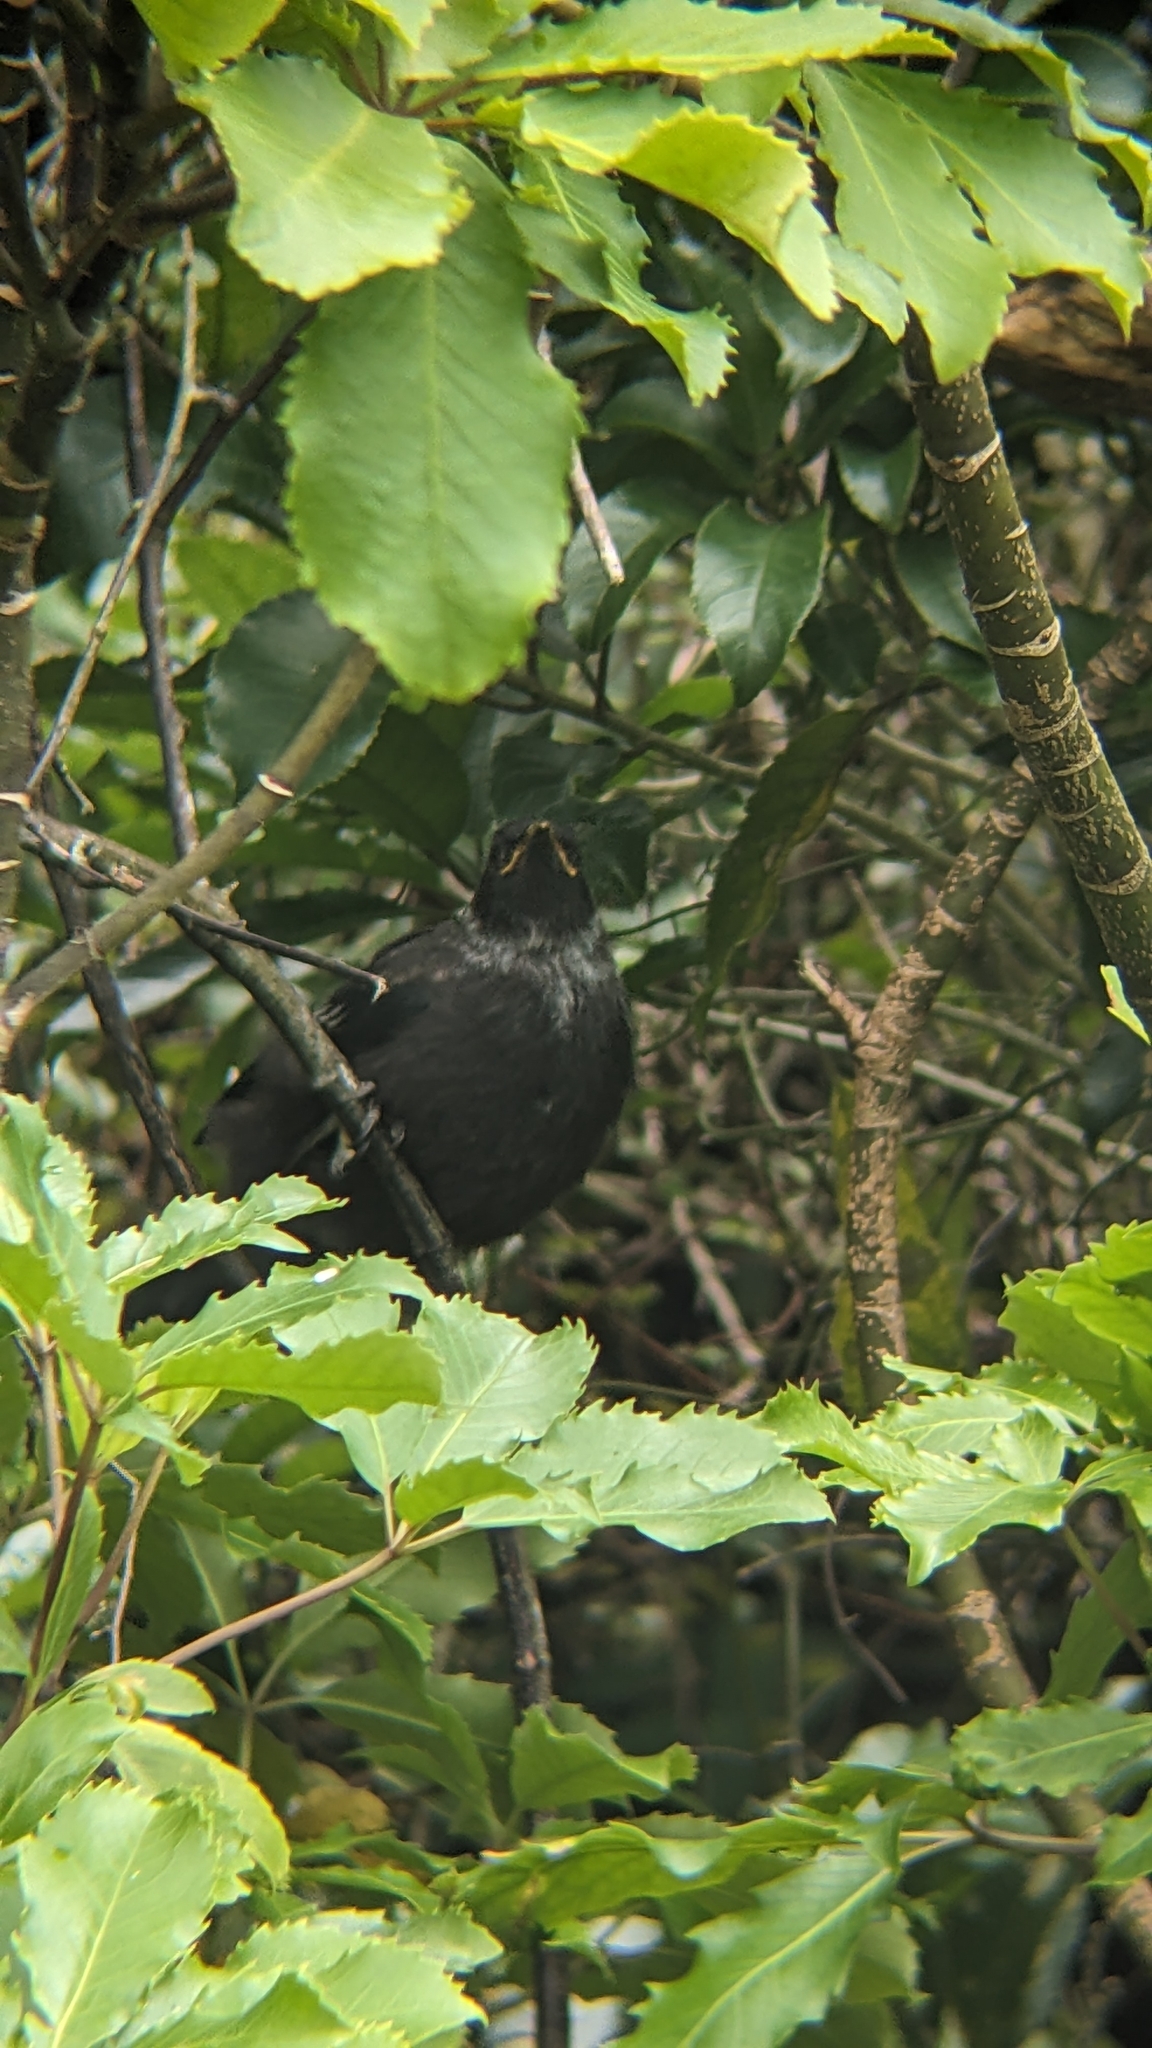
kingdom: Animalia
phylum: Chordata
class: Aves
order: Passeriformes
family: Meliphagidae
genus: Prosthemadera
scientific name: Prosthemadera novaeseelandiae
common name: Tui
